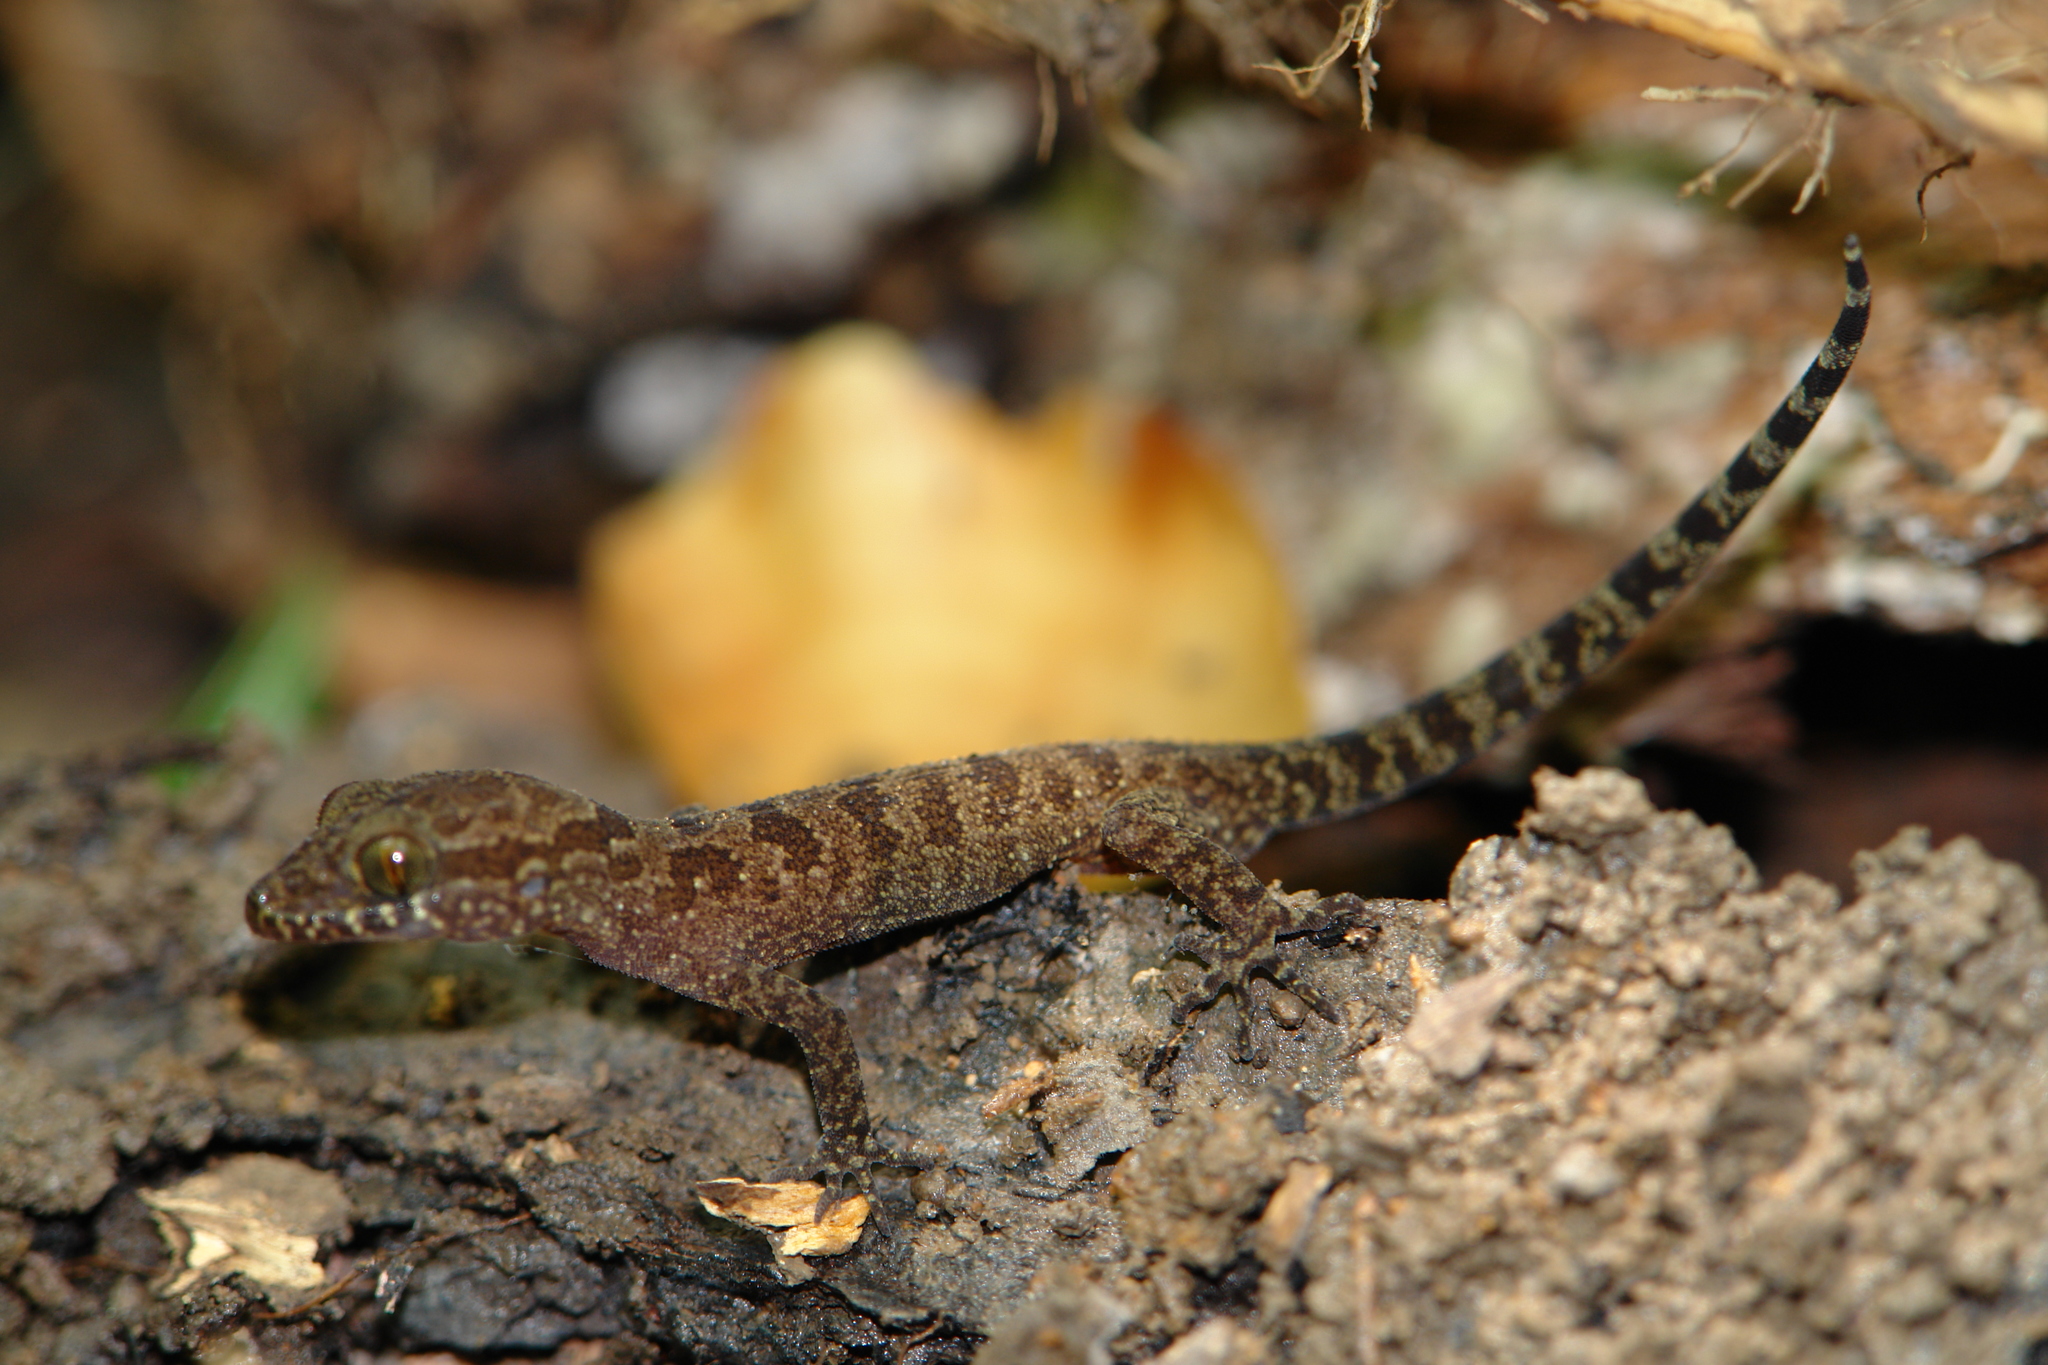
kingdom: Animalia
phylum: Chordata
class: Squamata
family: Gekkonidae
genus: Cyrtodactylus
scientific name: Cyrtodactylus cattienensis
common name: Cat tien bent-toed gecko
